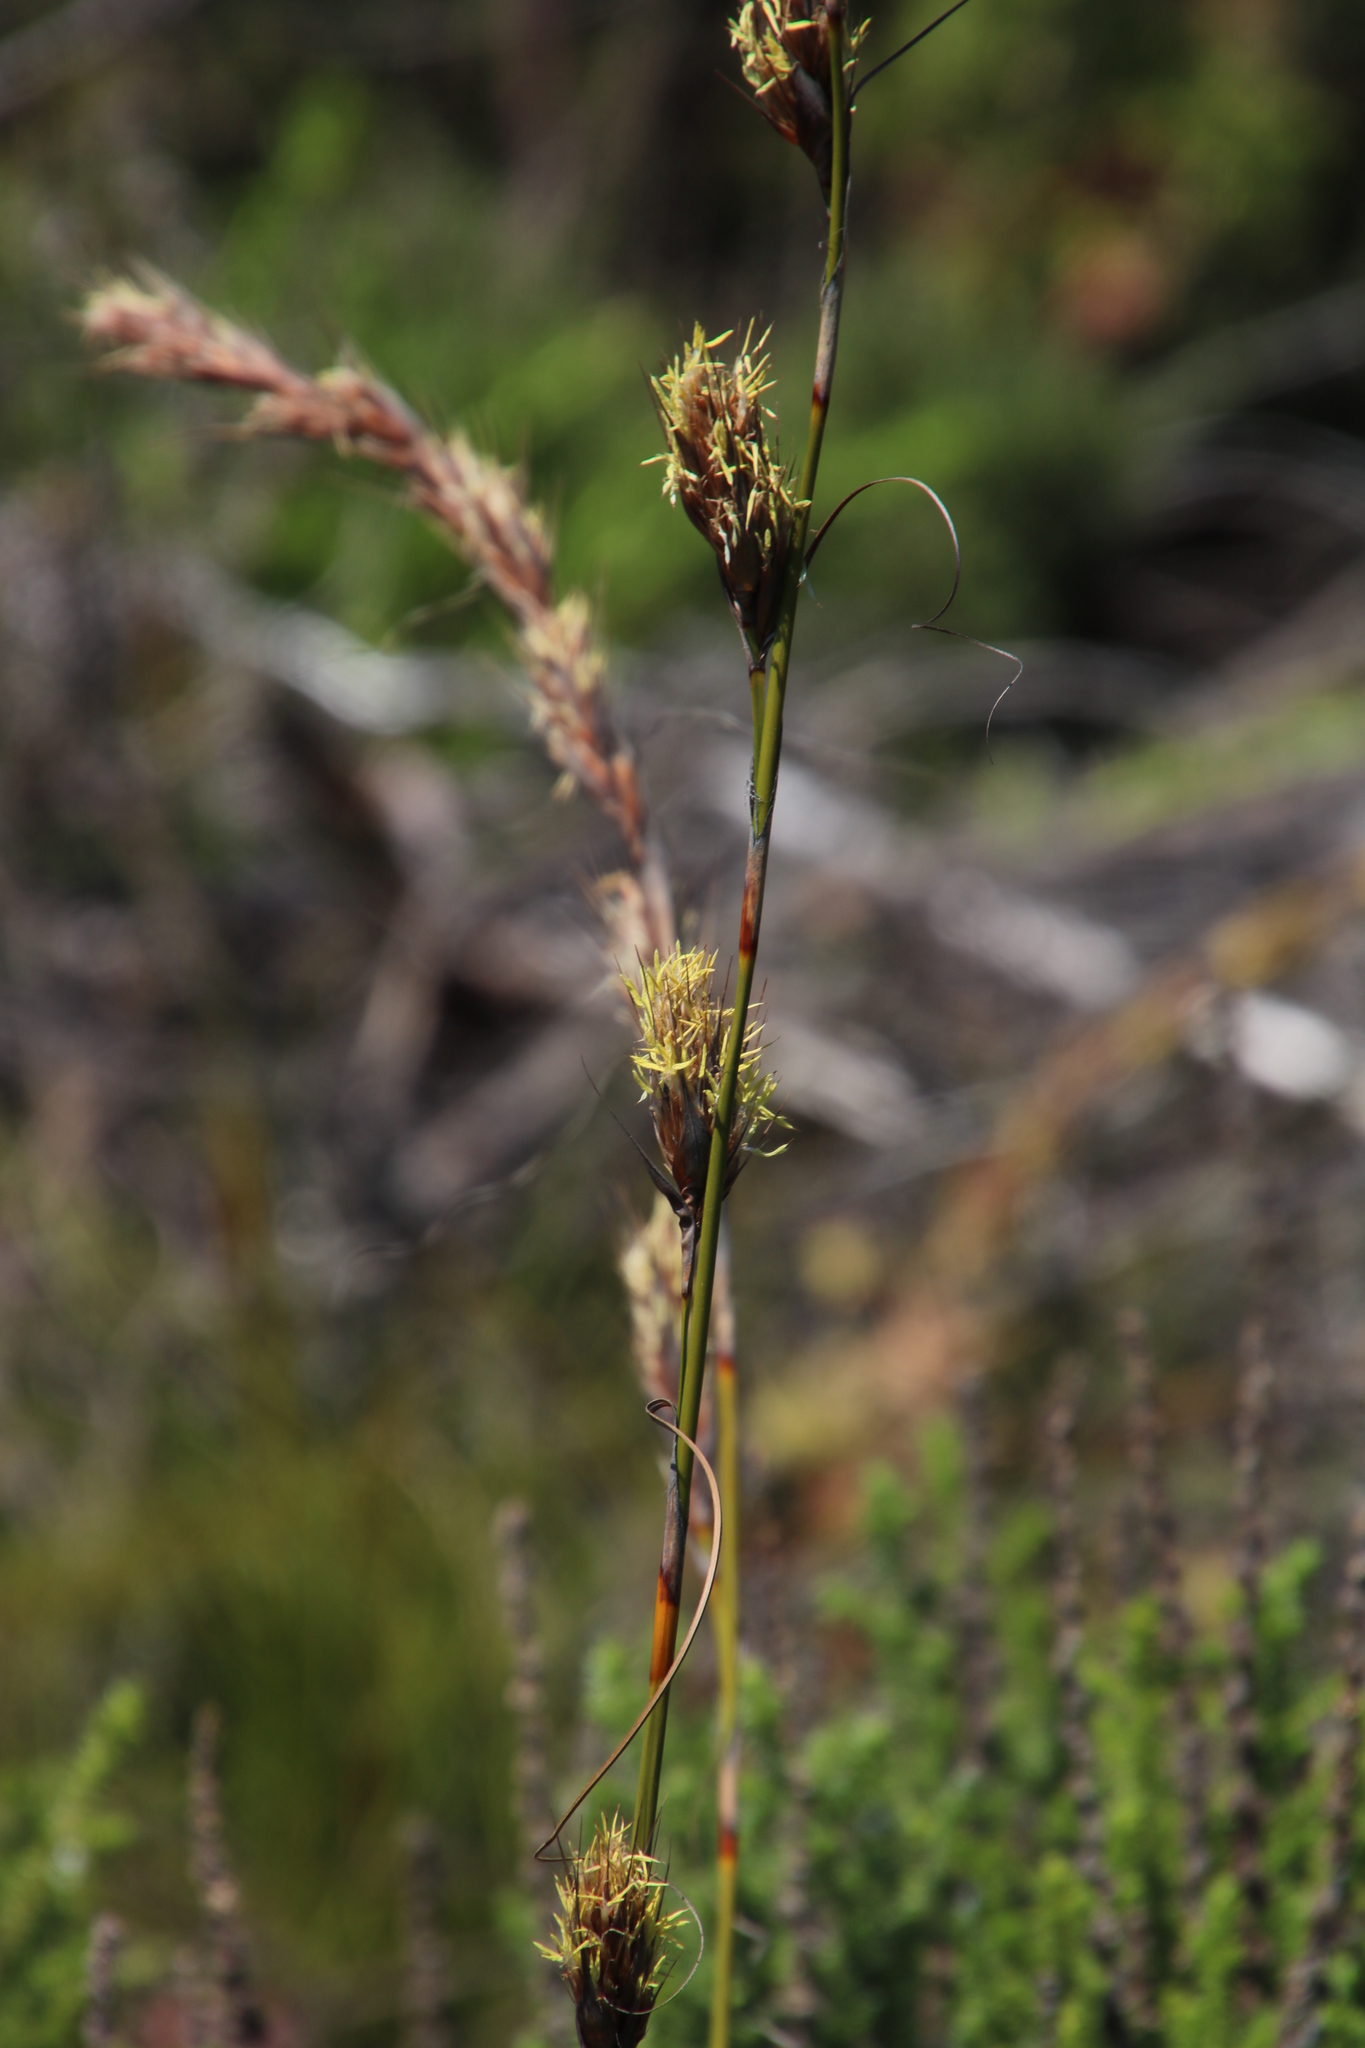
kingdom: Plantae
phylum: Tracheophyta
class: Liliopsida
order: Poales
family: Cyperaceae
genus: Tetraria
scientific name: Tetraria bromoides
